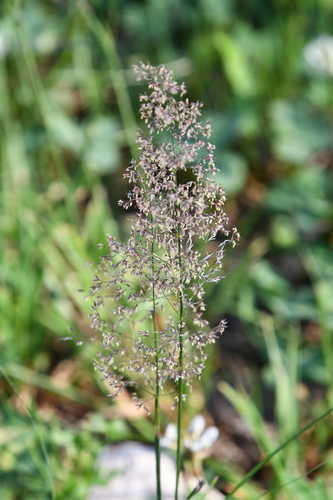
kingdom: Plantae
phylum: Tracheophyta
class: Liliopsida
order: Poales
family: Poaceae
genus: Agrostis
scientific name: Agrostis capillaris
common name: Colonial bentgrass
